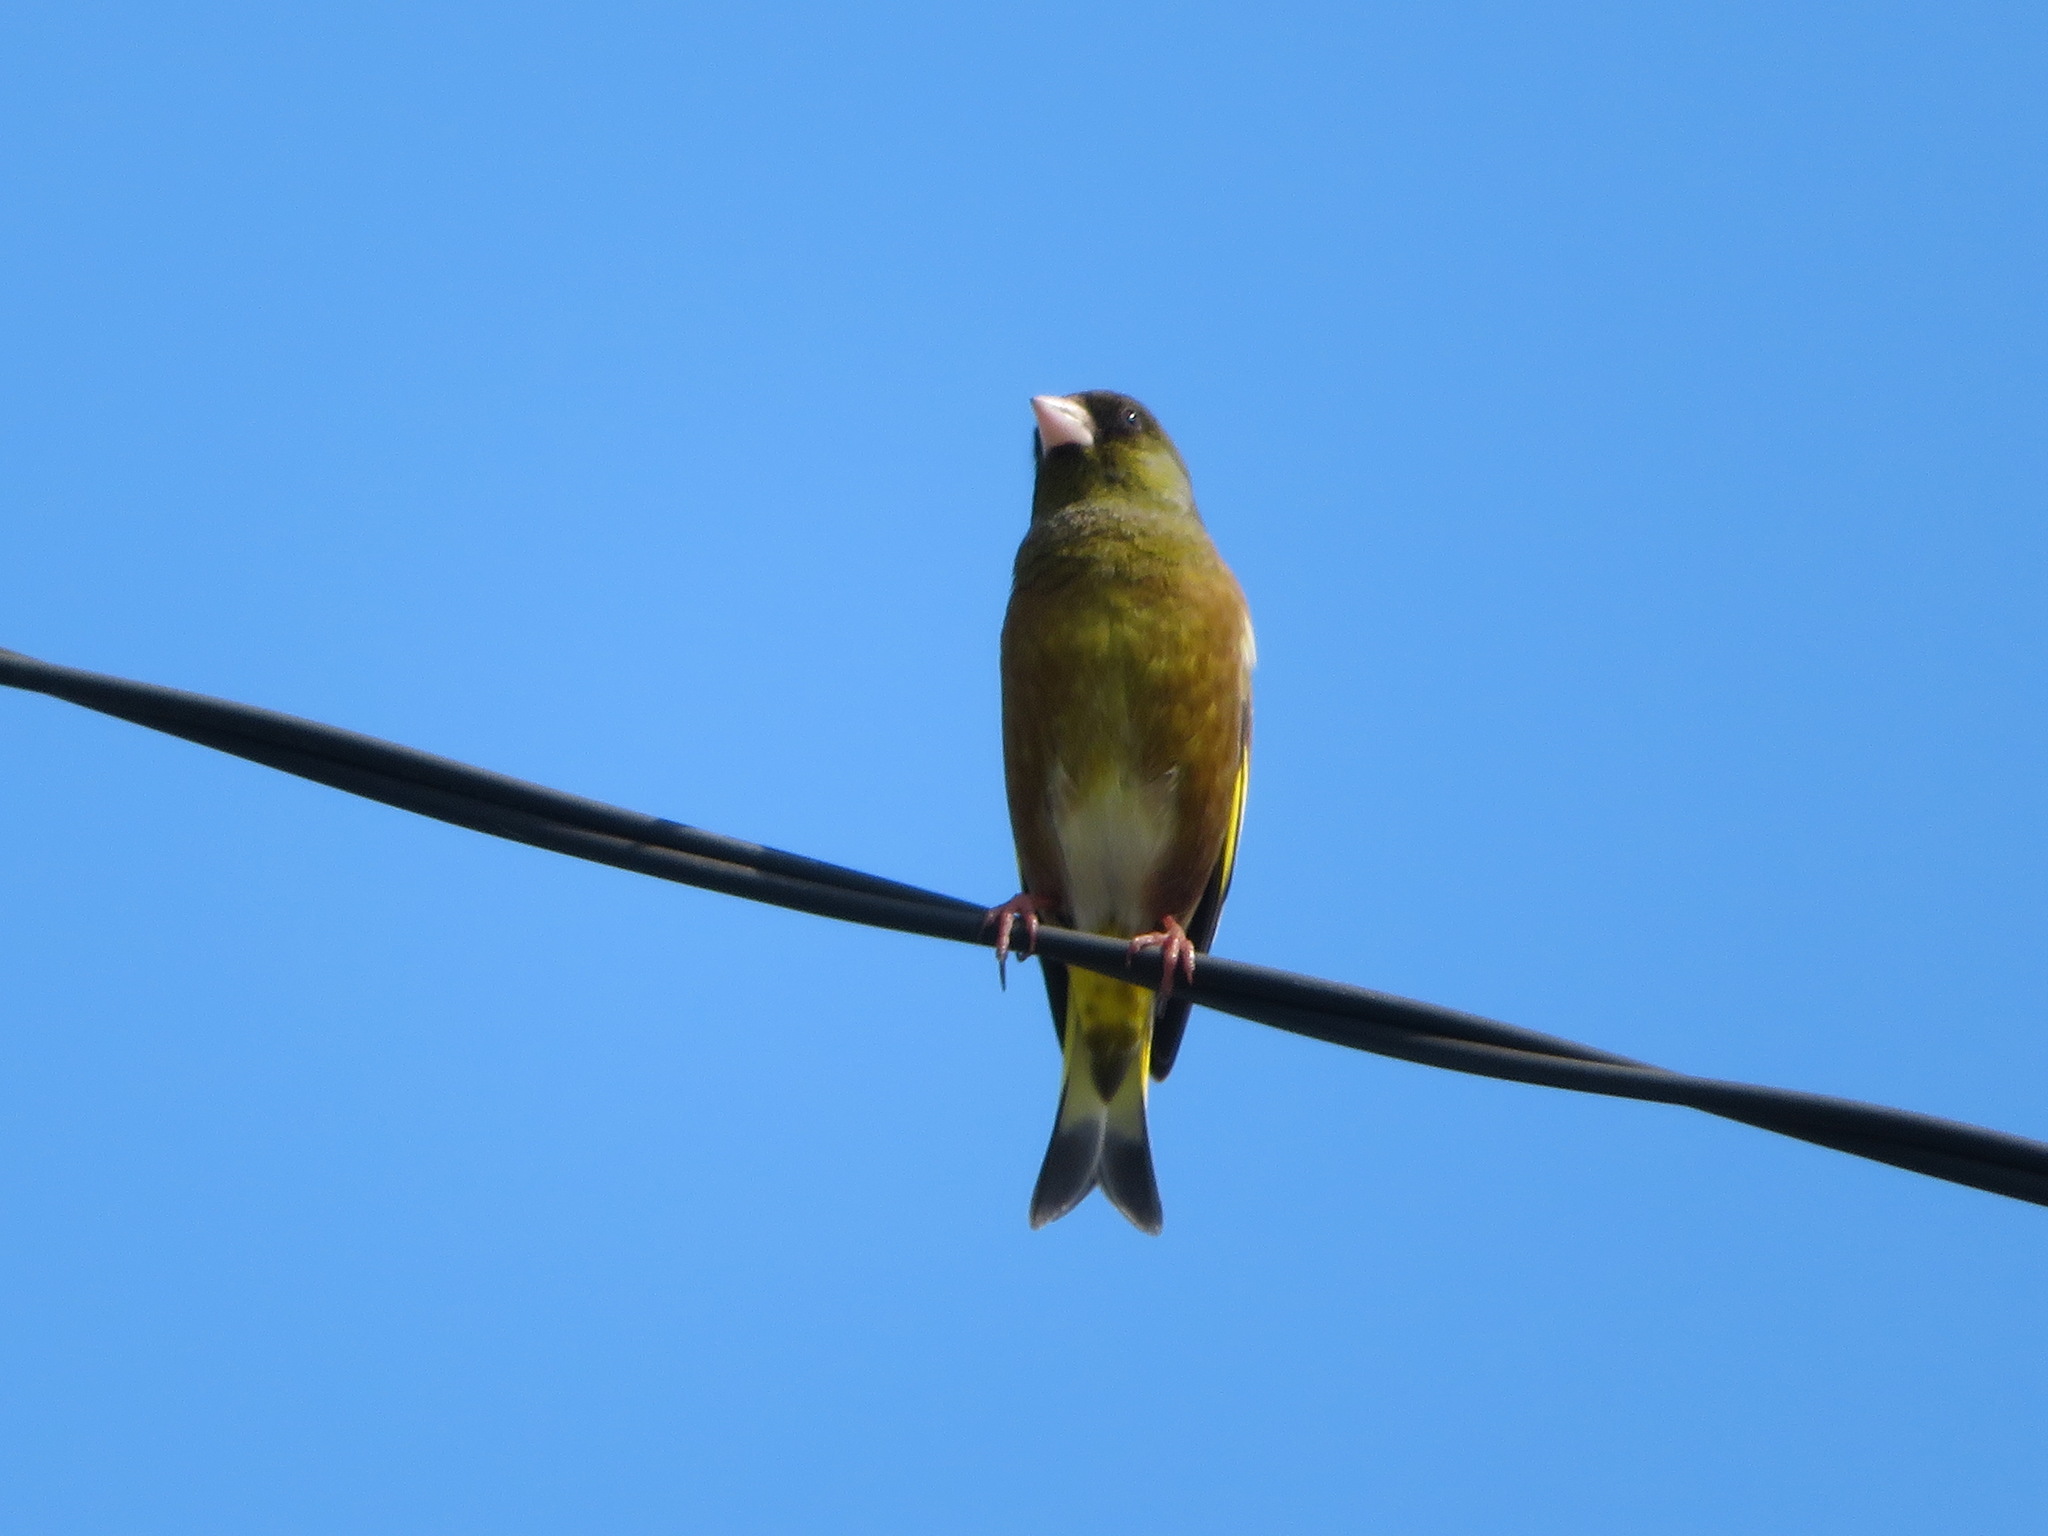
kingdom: Plantae
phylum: Tracheophyta
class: Liliopsida
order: Poales
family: Poaceae
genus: Chloris
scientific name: Chloris sinica
